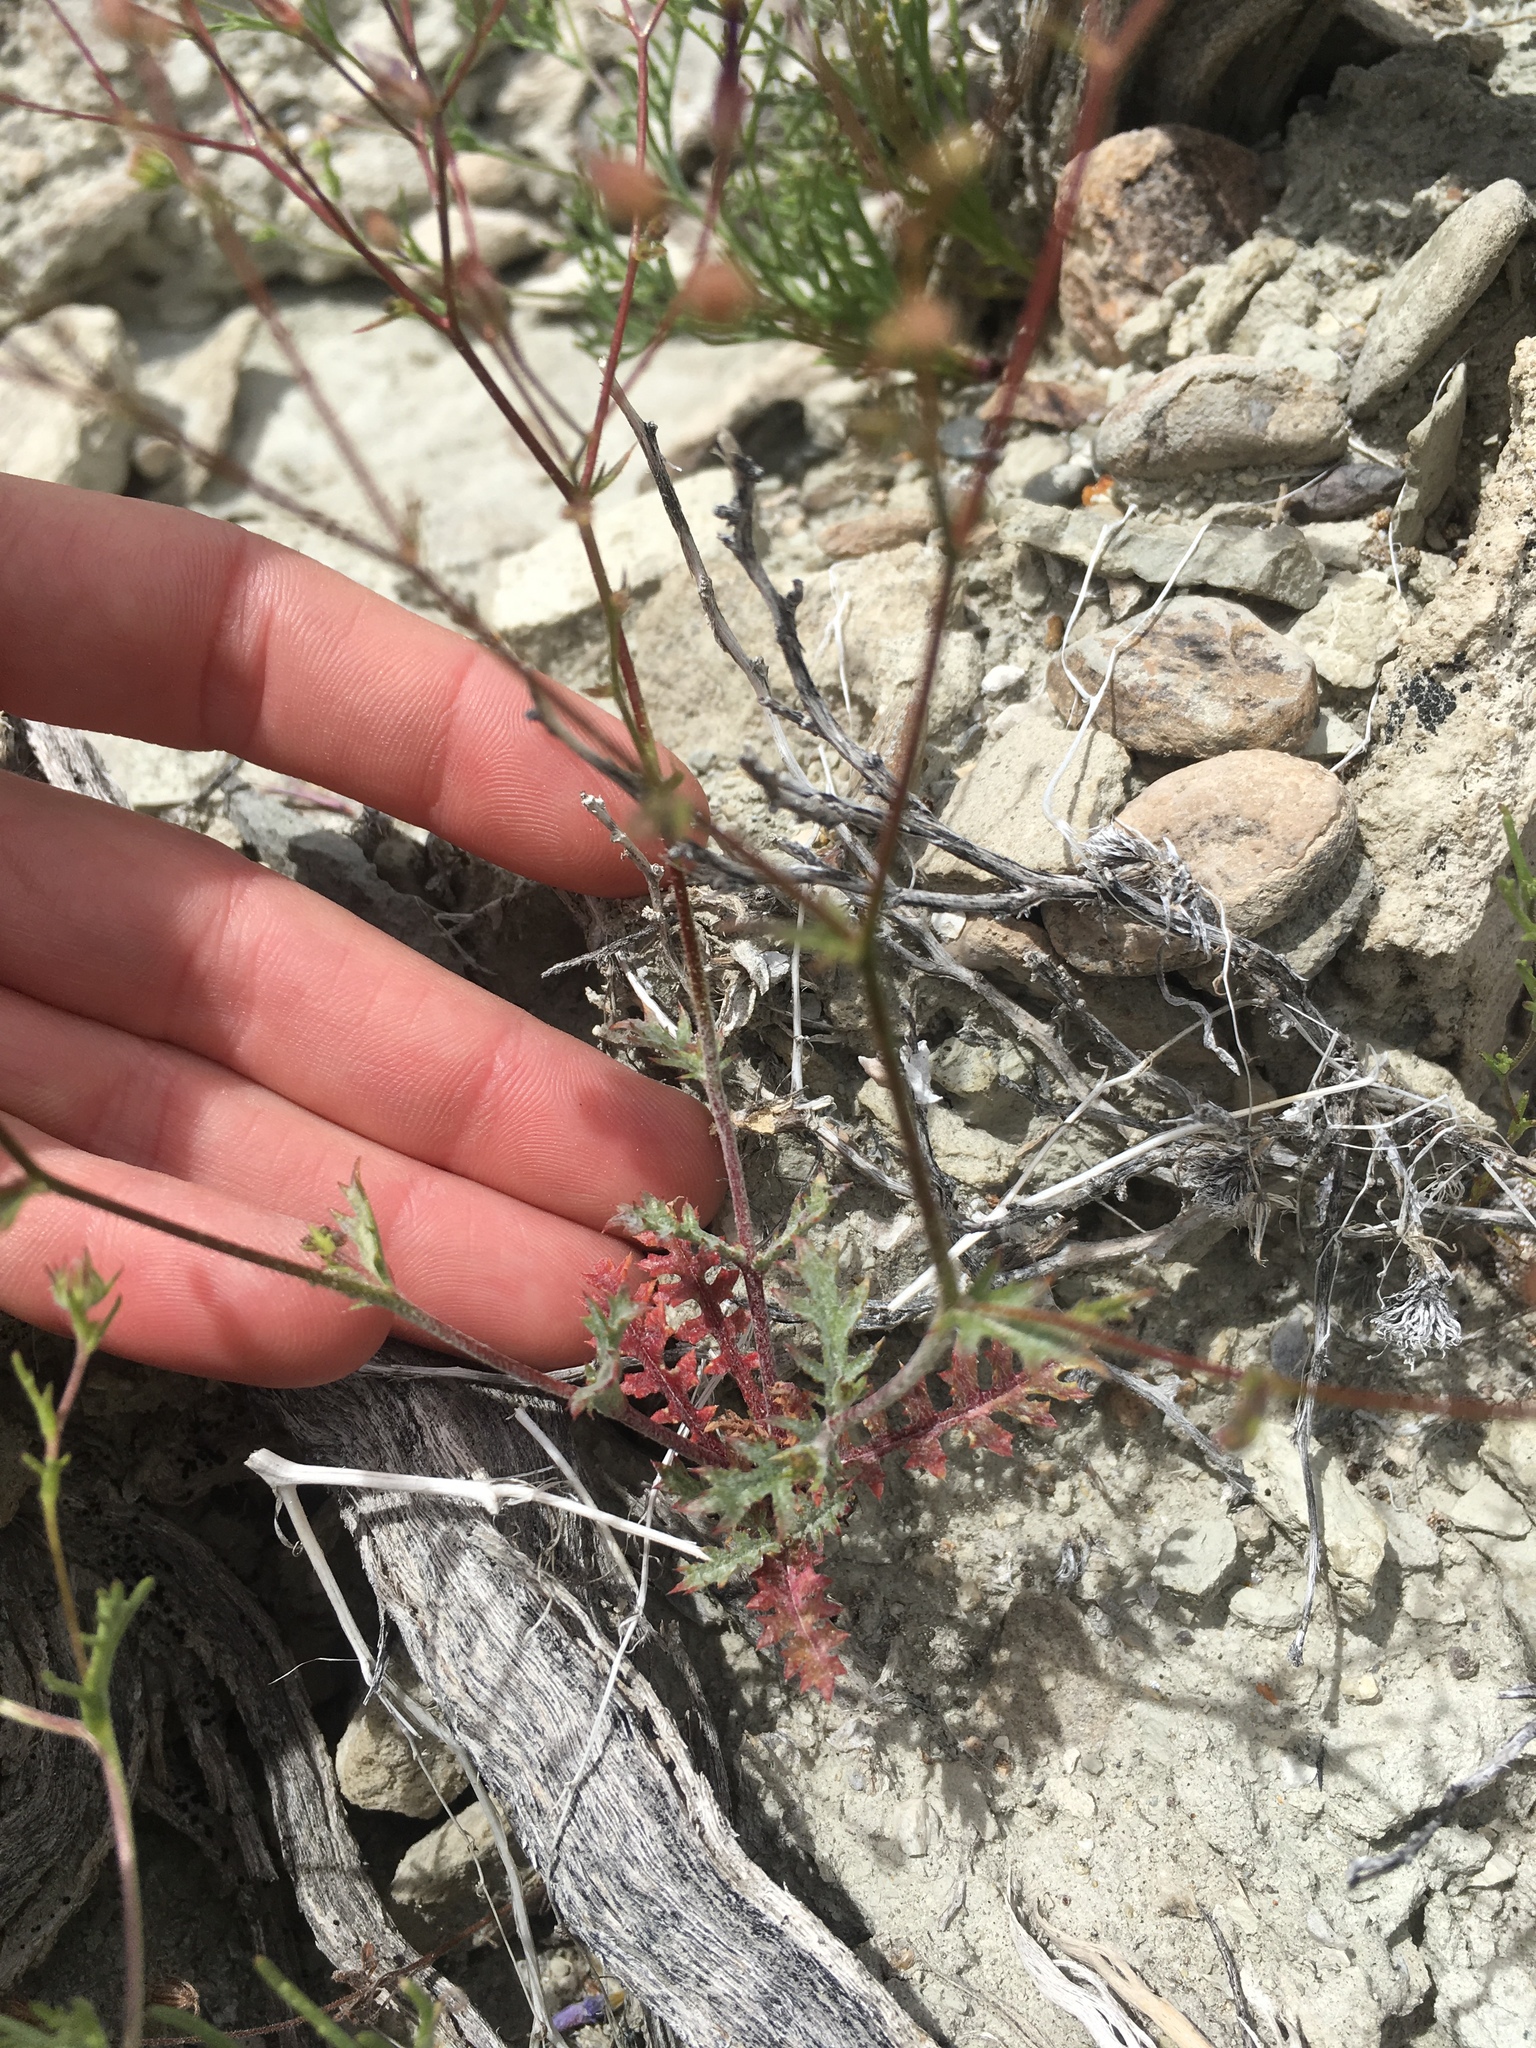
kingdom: Plantae
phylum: Tracheophyta
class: Magnoliopsida
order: Ericales
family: Polemoniaceae
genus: Gilia
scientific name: Gilia cana
